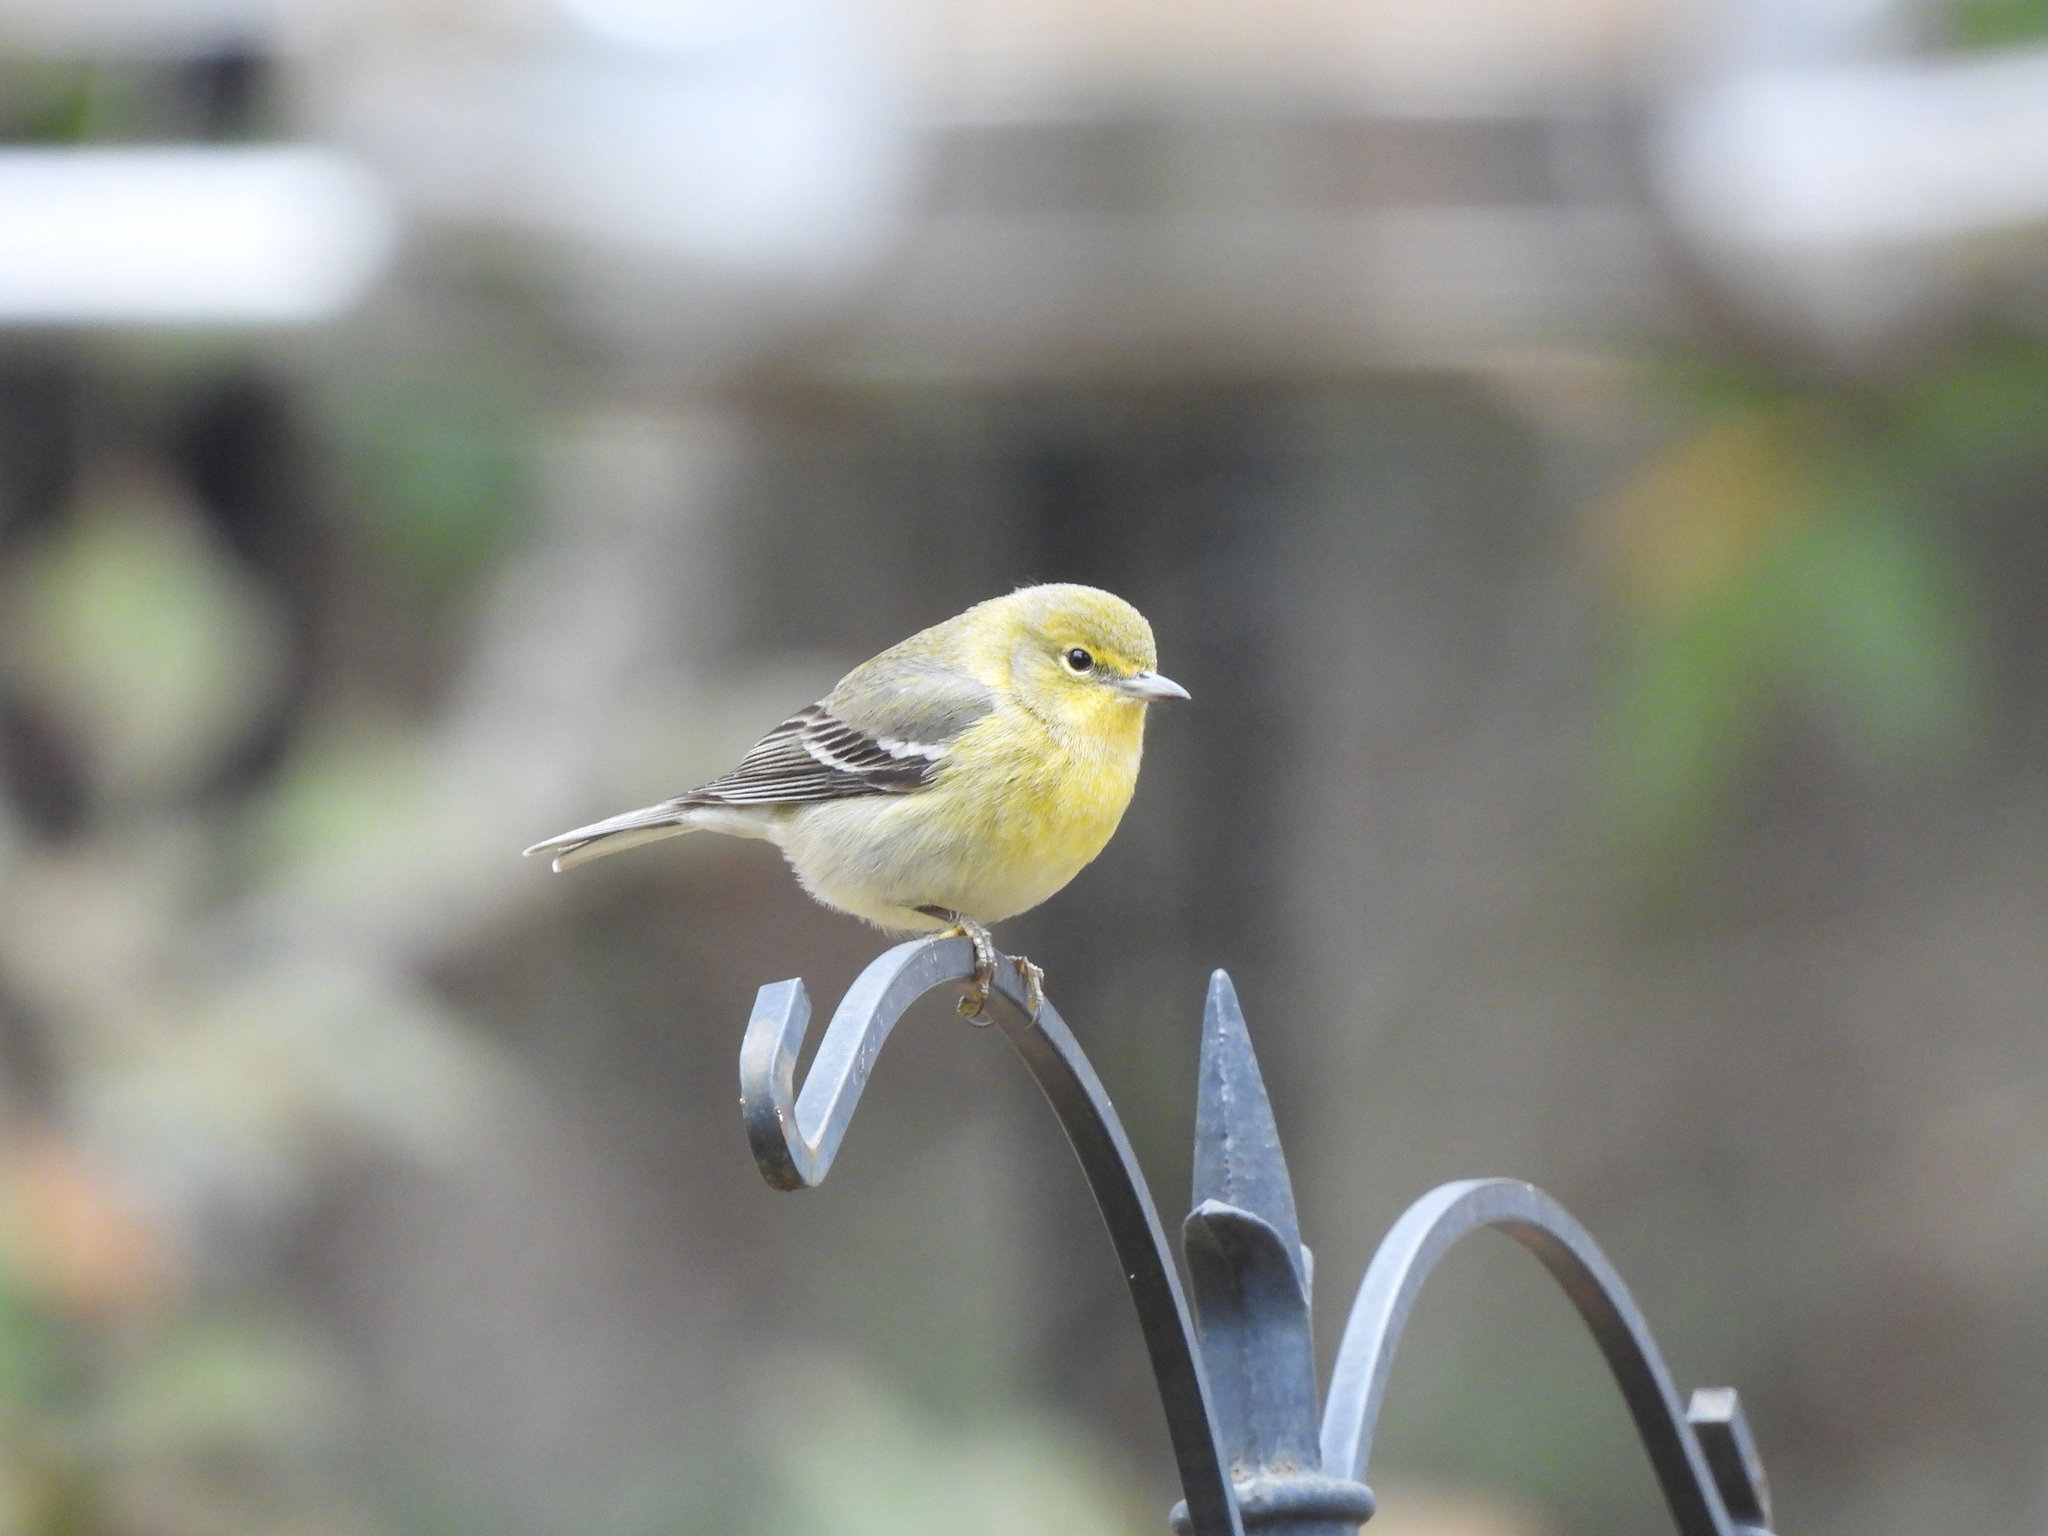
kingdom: Animalia
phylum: Chordata
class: Aves
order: Passeriformes
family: Parulidae
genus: Setophaga
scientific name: Setophaga pinus
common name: Pine warbler
